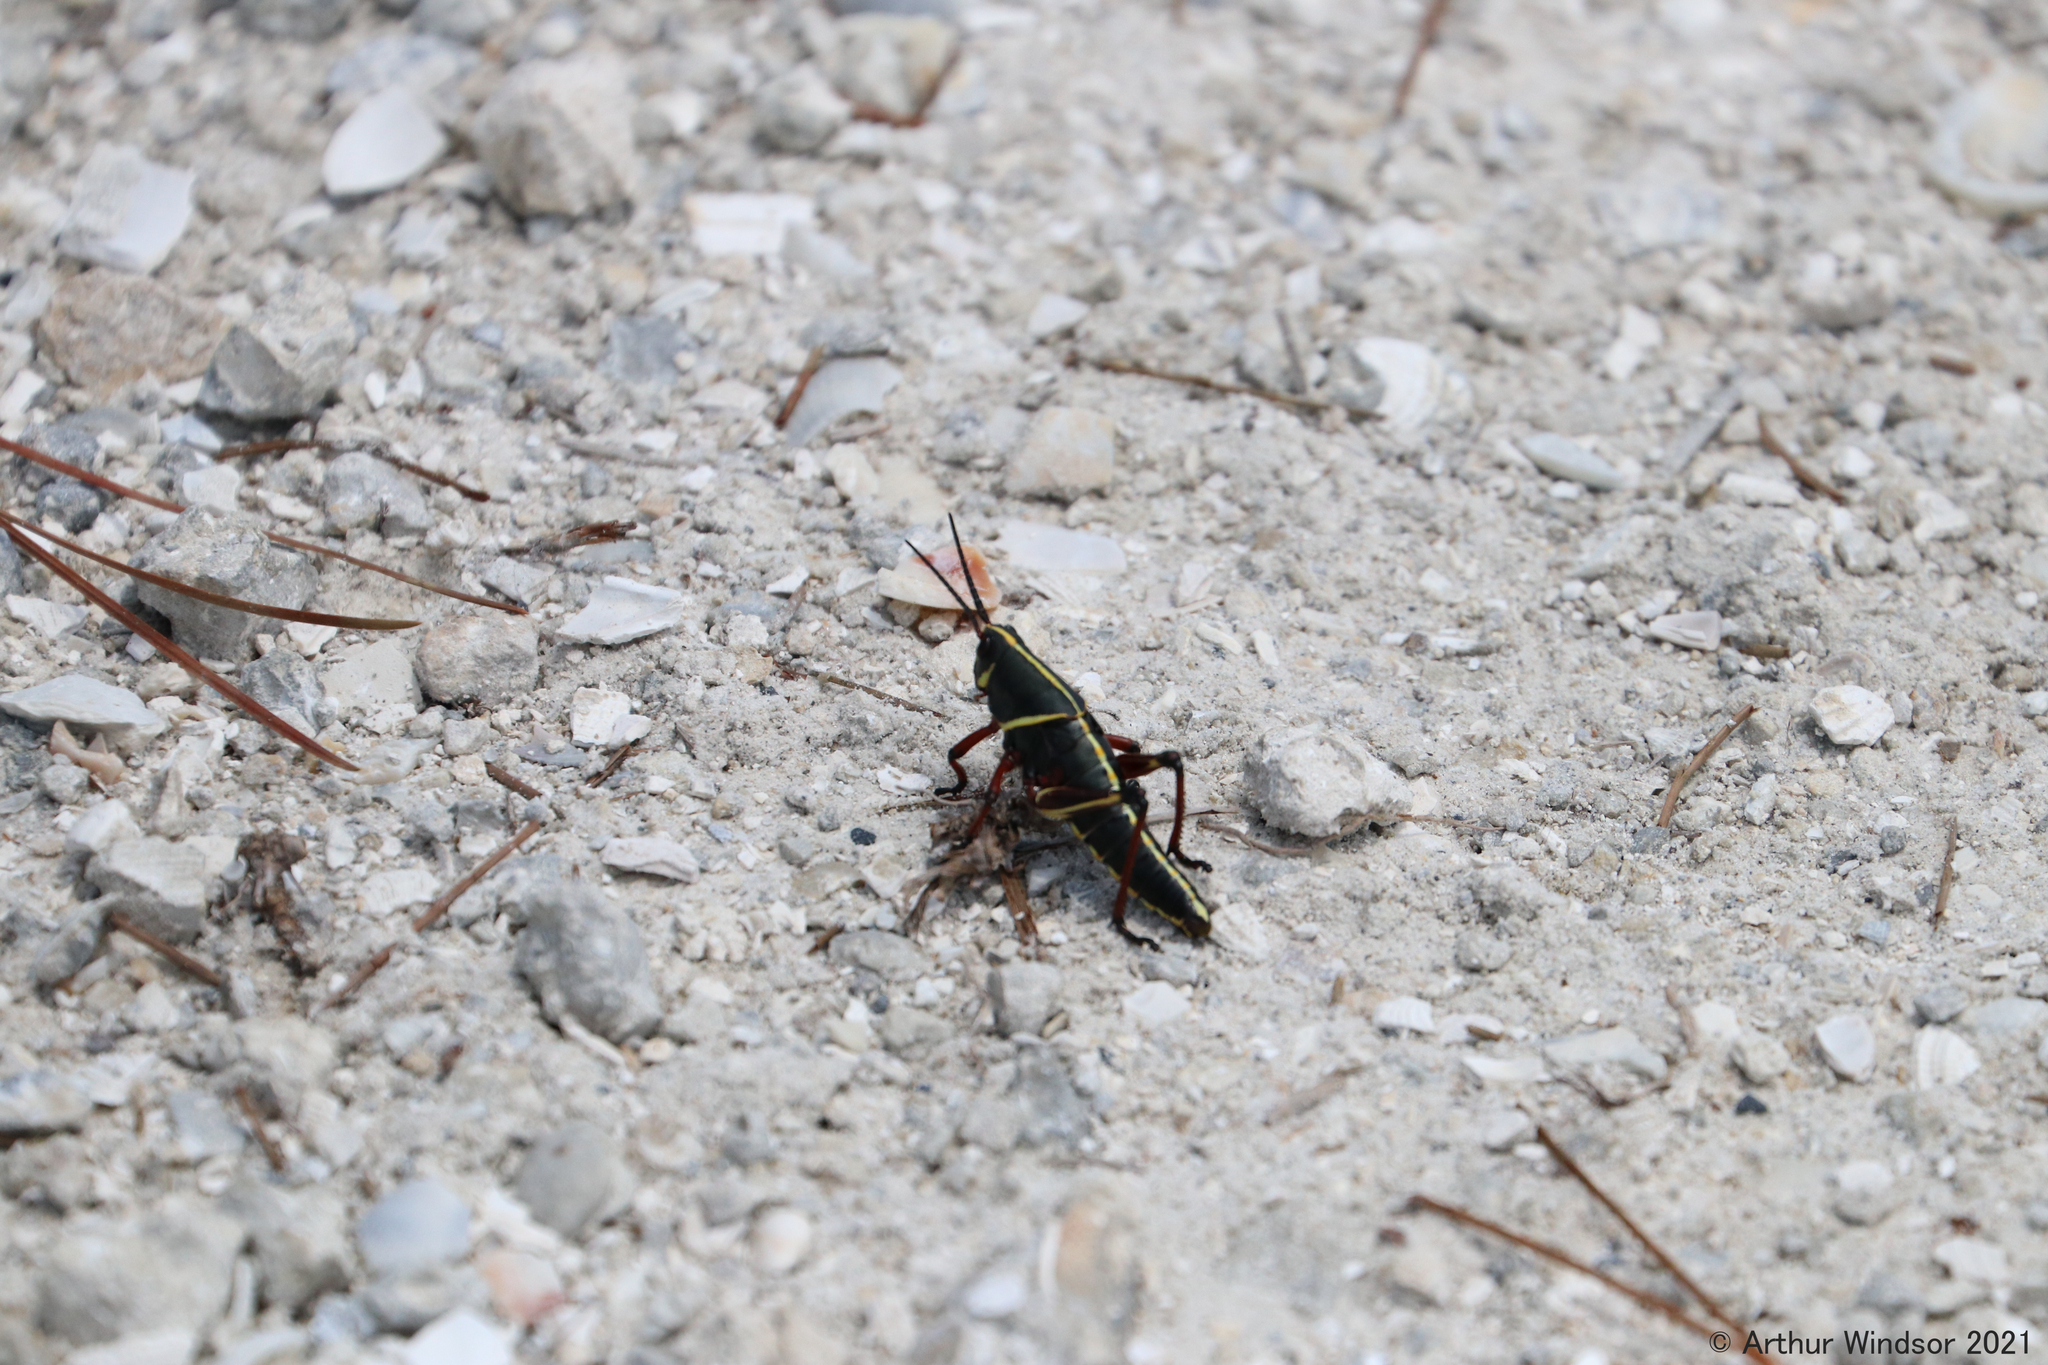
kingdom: Animalia
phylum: Arthropoda
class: Insecta
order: Orthoptera
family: Romaleidae
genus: Romalea
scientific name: Romalea microptera
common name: Eastern lubber grasshopper
